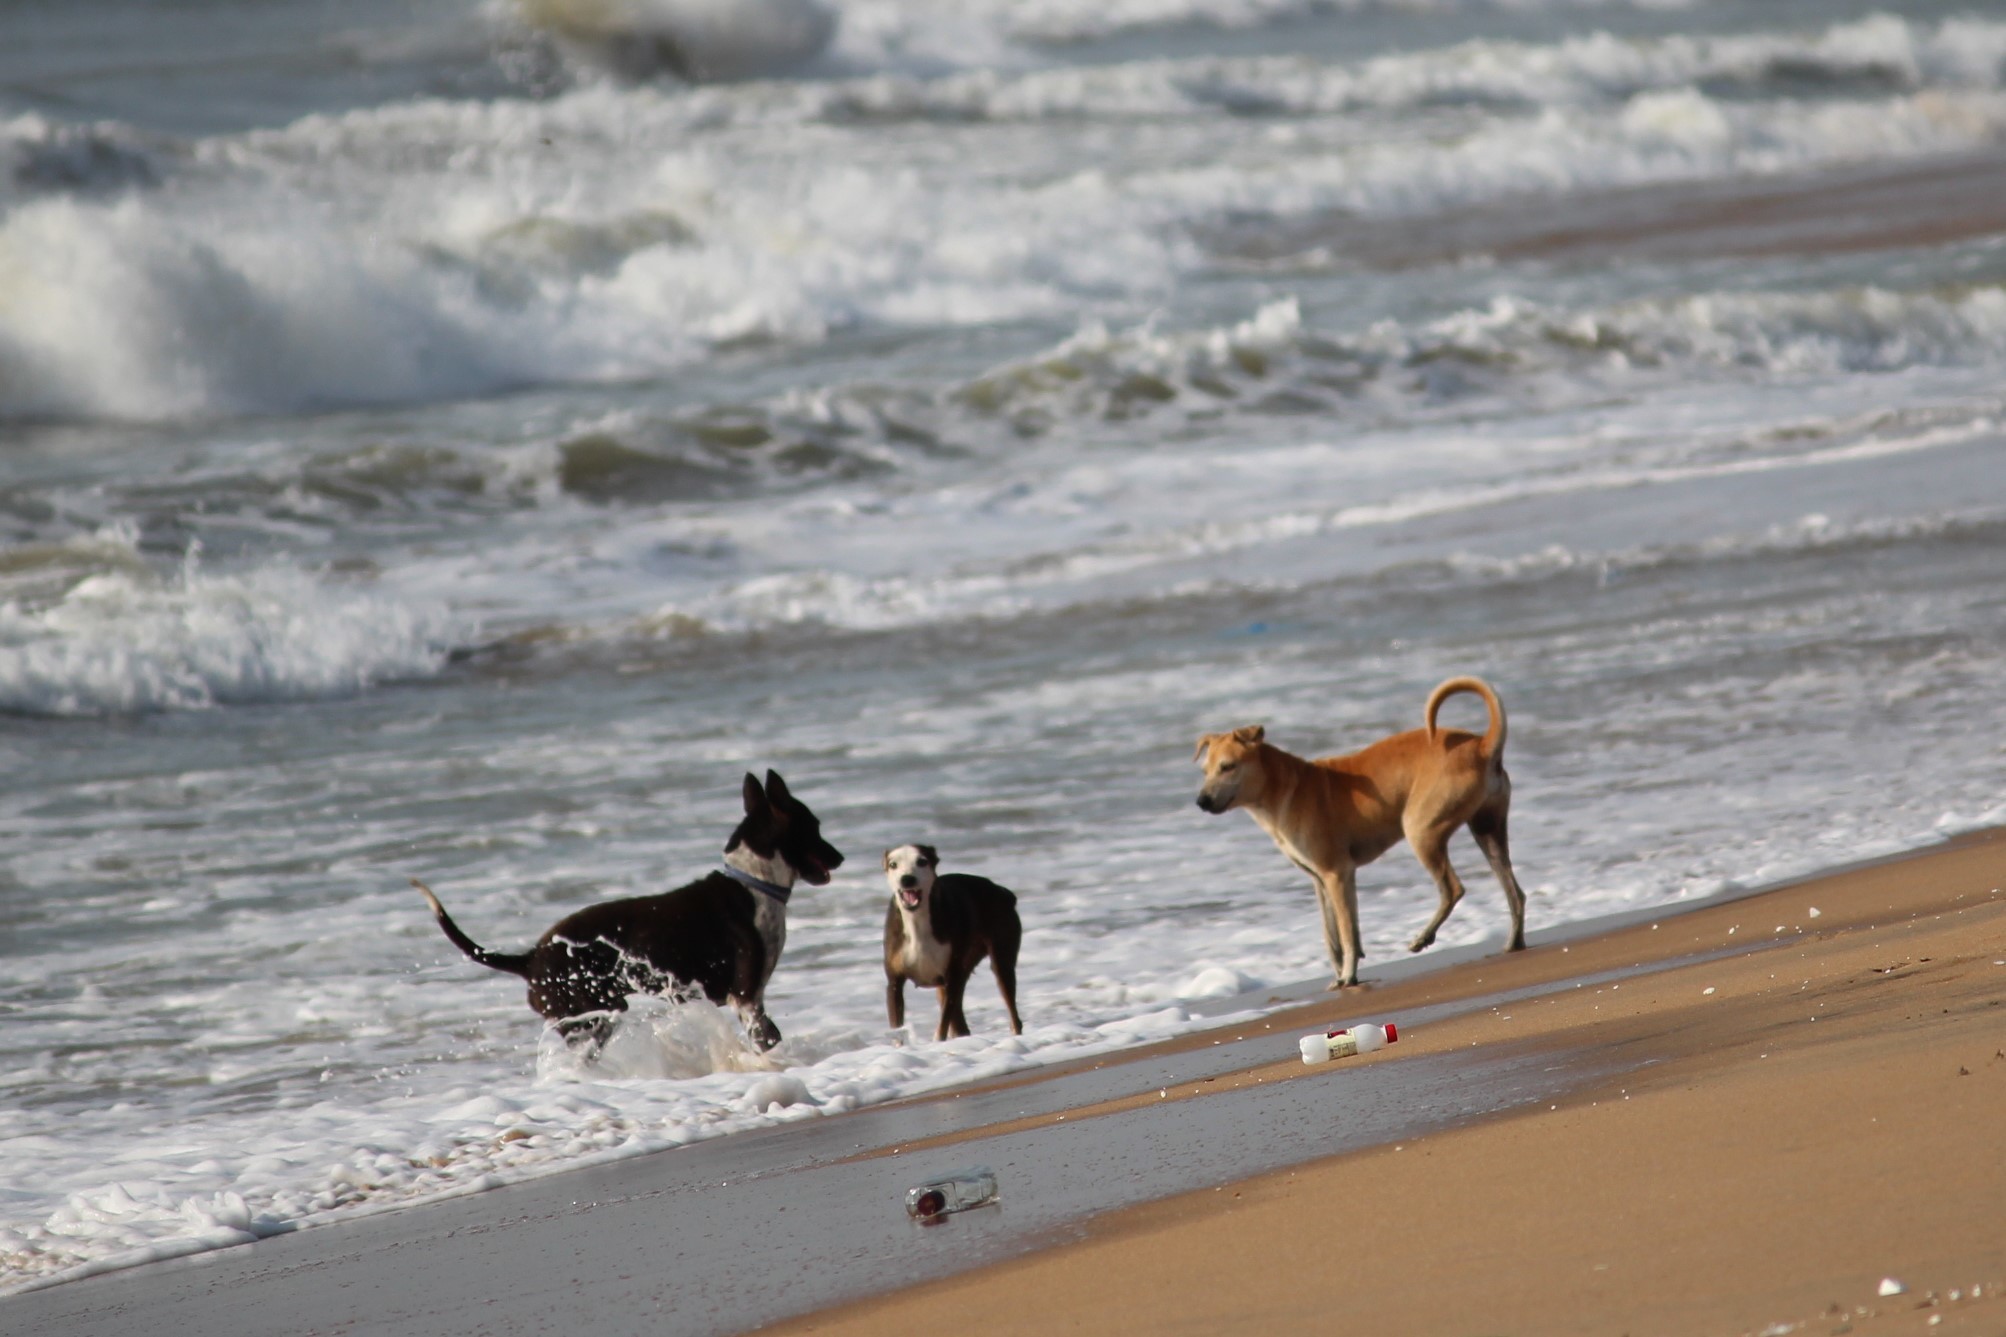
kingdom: Animalia
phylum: Chordata
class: Mammalia
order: Carnivora
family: Canidae
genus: Canis
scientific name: Canis lupus
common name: Gray wolf
